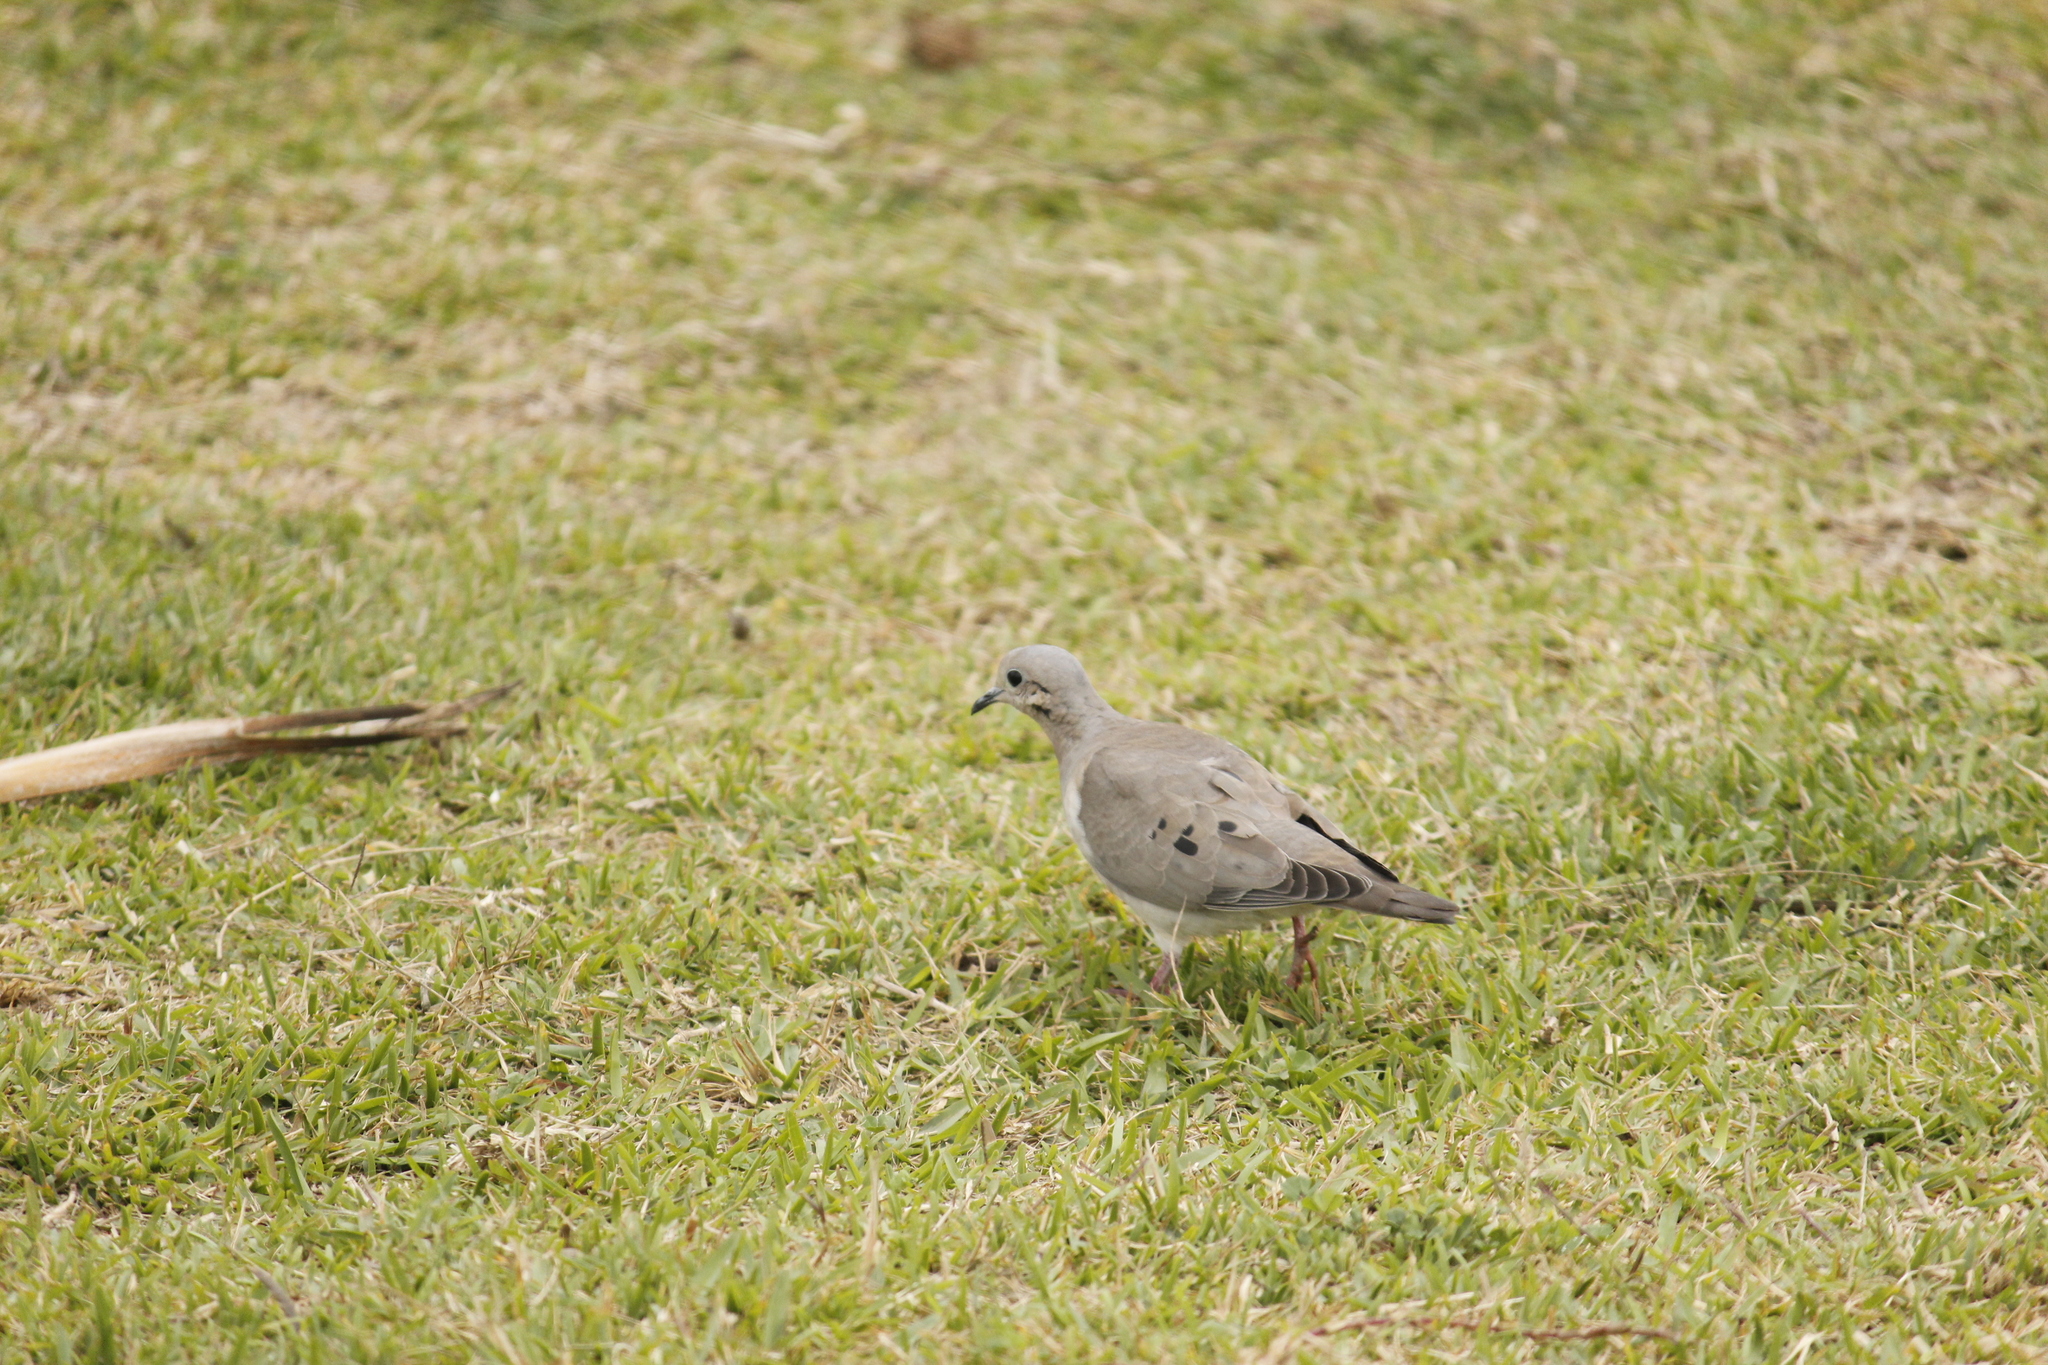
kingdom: Animalia
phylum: Chordata
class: Aves
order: Columbiformes
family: Columbidae
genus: Zenaida
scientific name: Zenaida auriculata
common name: Eared dove
